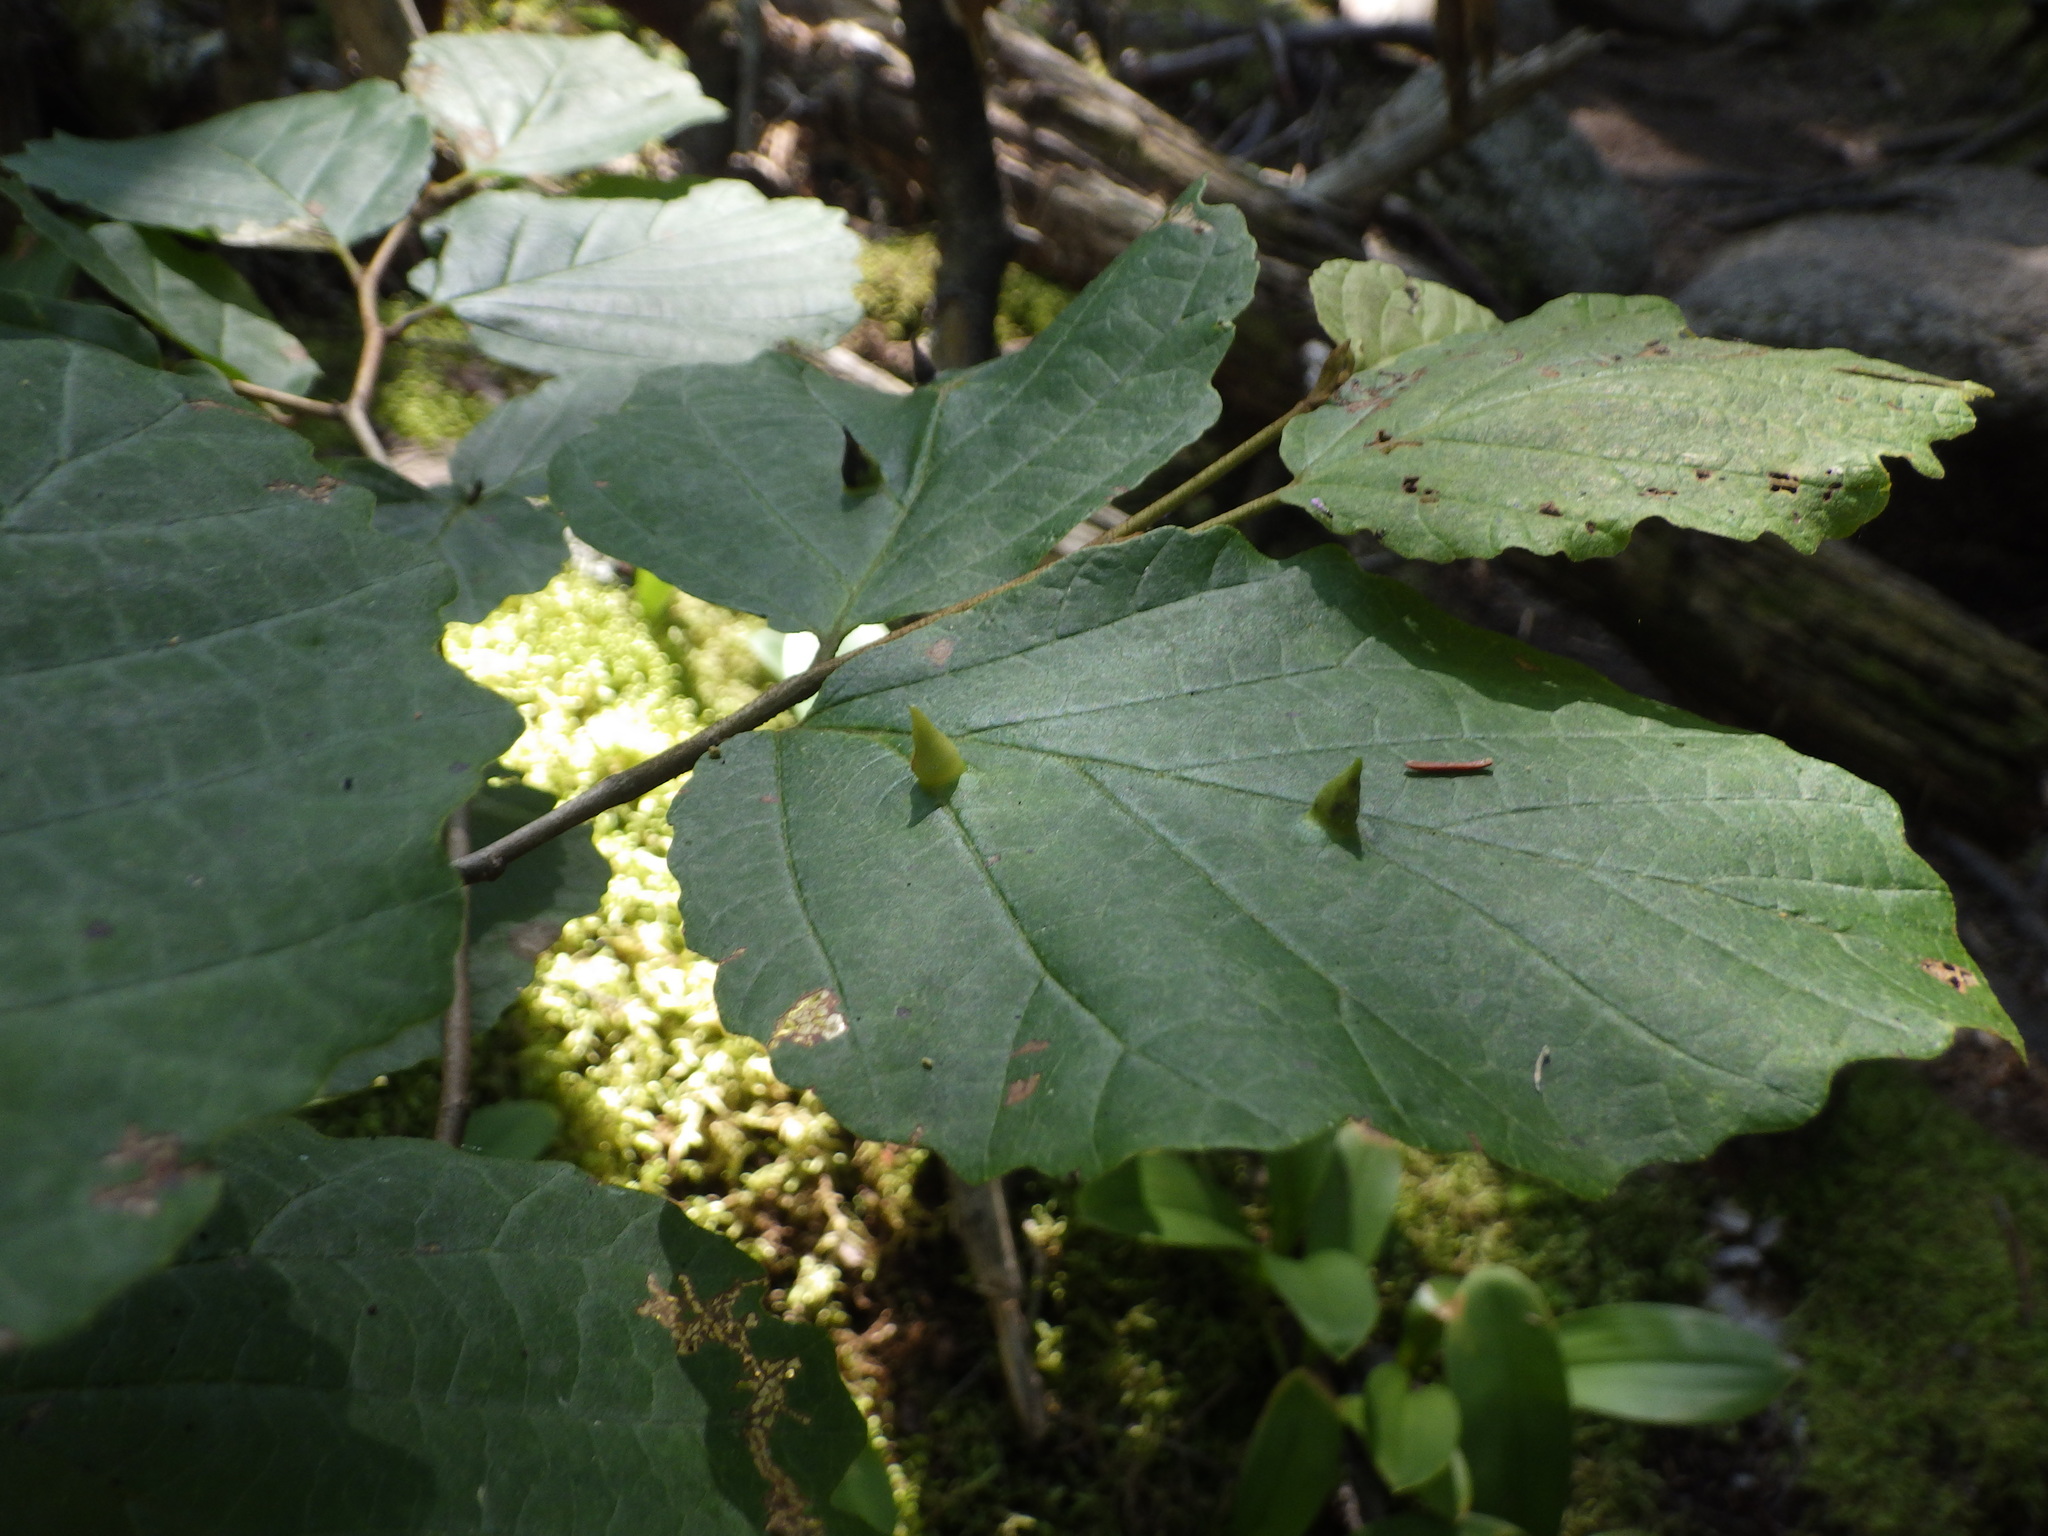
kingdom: Animalia
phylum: Arthropoda
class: Insecta
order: Hemiptera
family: Aphididae
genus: Hormaphis
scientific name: Hormaphis hamamelidis
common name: Witch-hazel cone gall aphid
